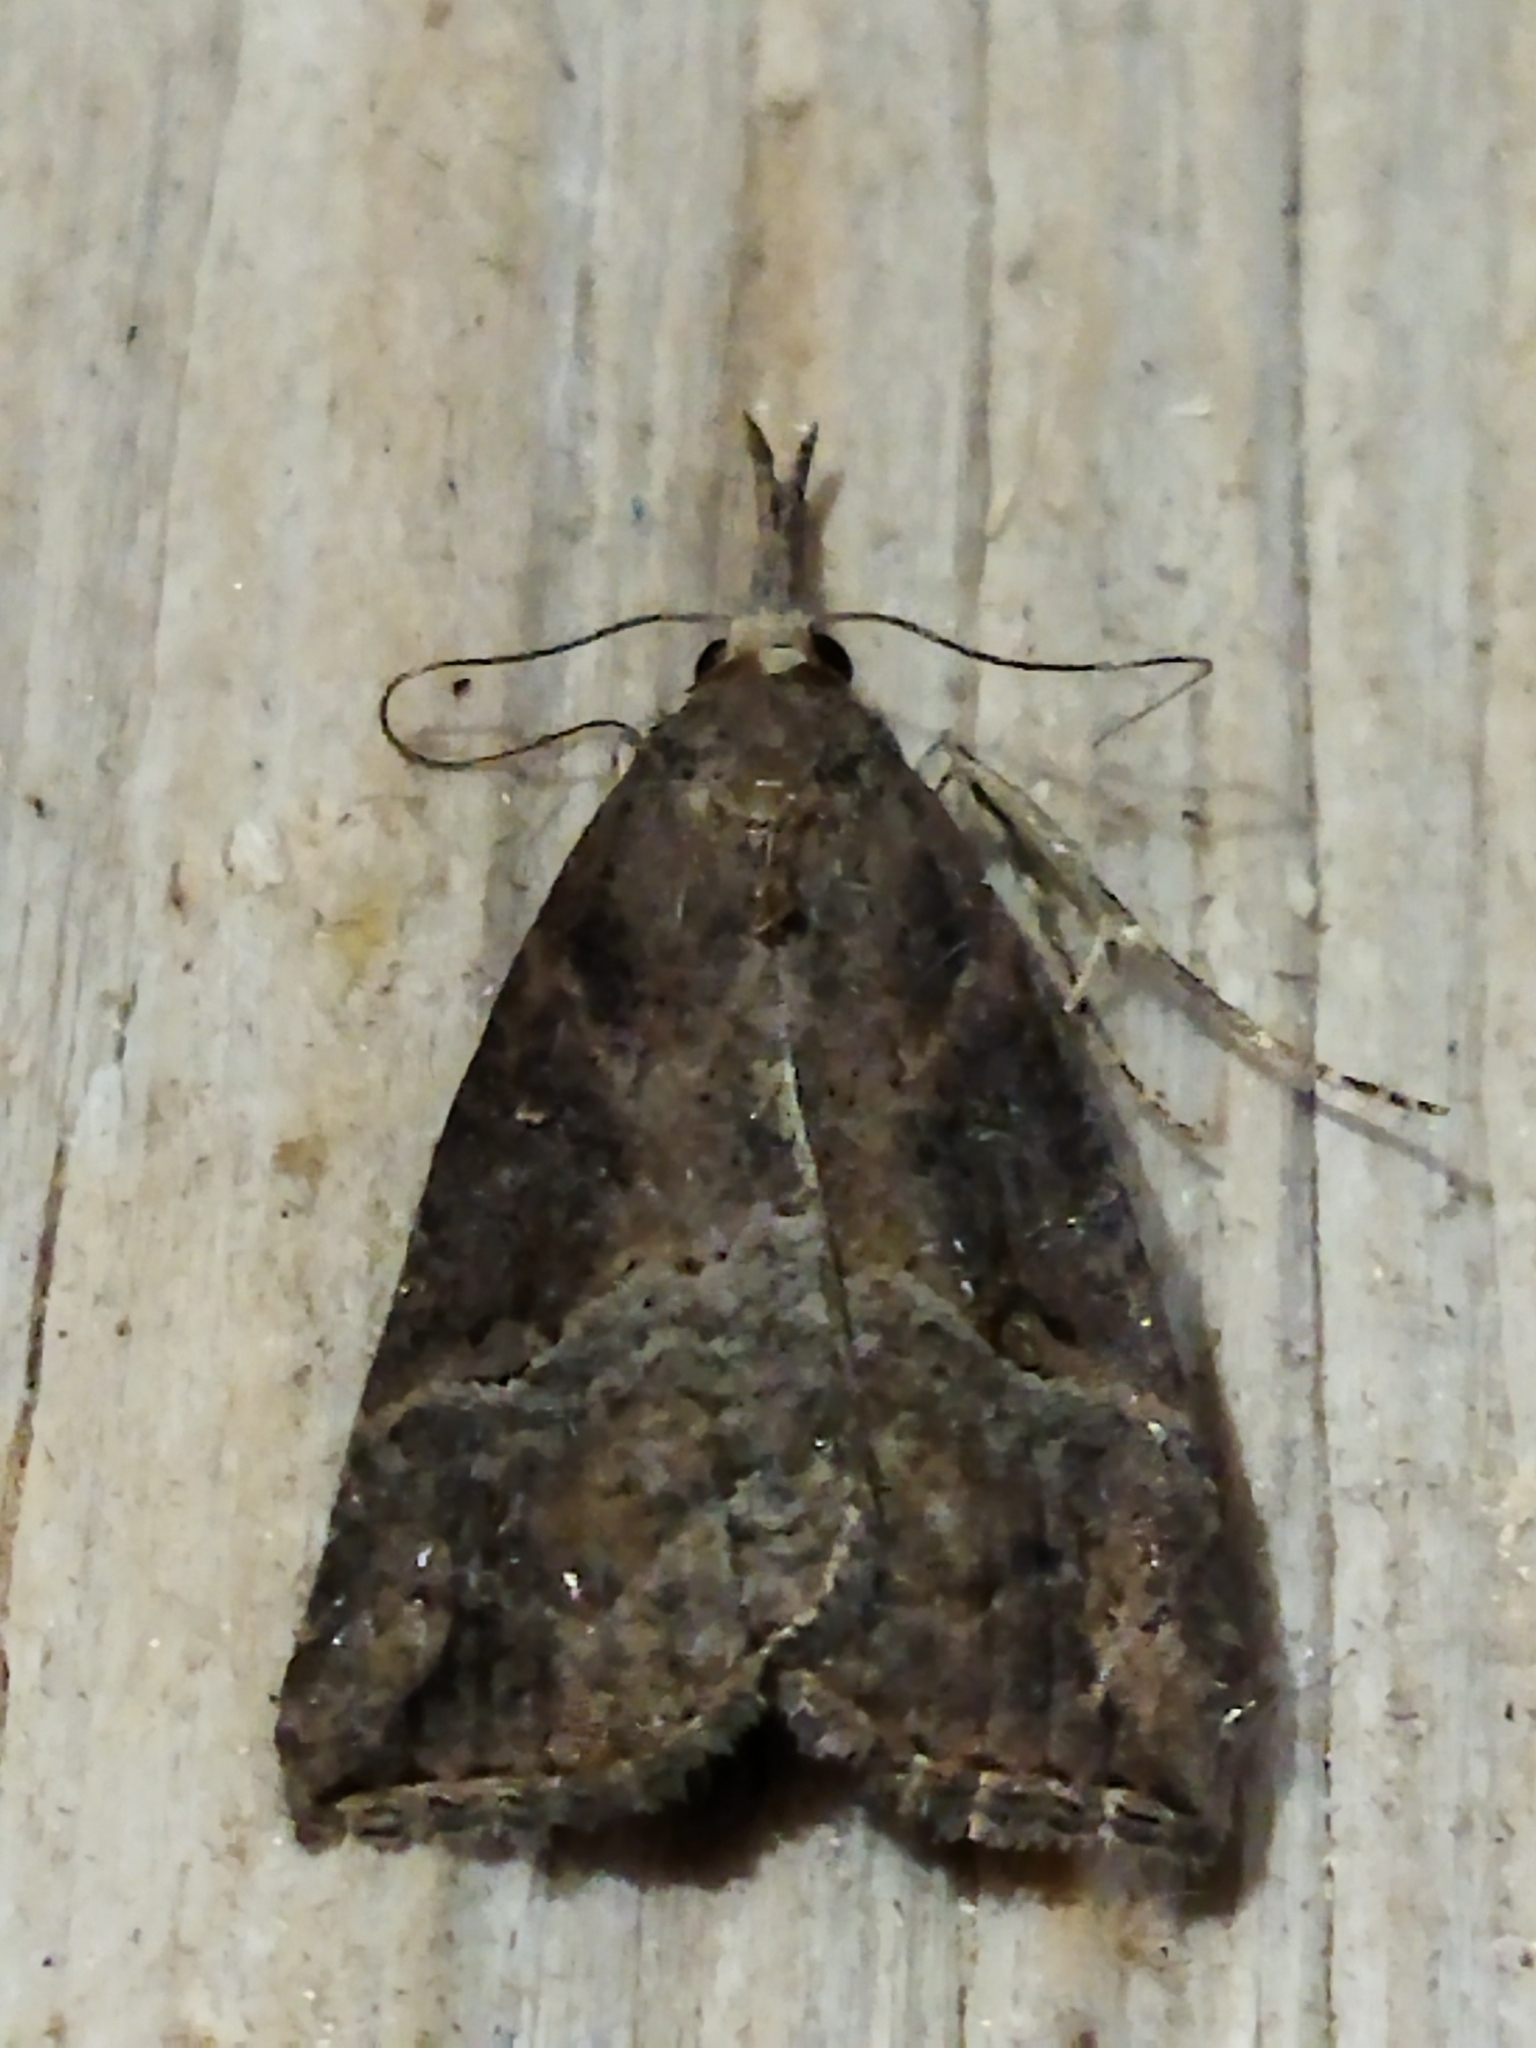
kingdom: Animalia
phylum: Arthropoda
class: Insecta
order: Lepidoptera
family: Erebidae
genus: Hypena
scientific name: Hypena rostralis
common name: Buttoned snout
